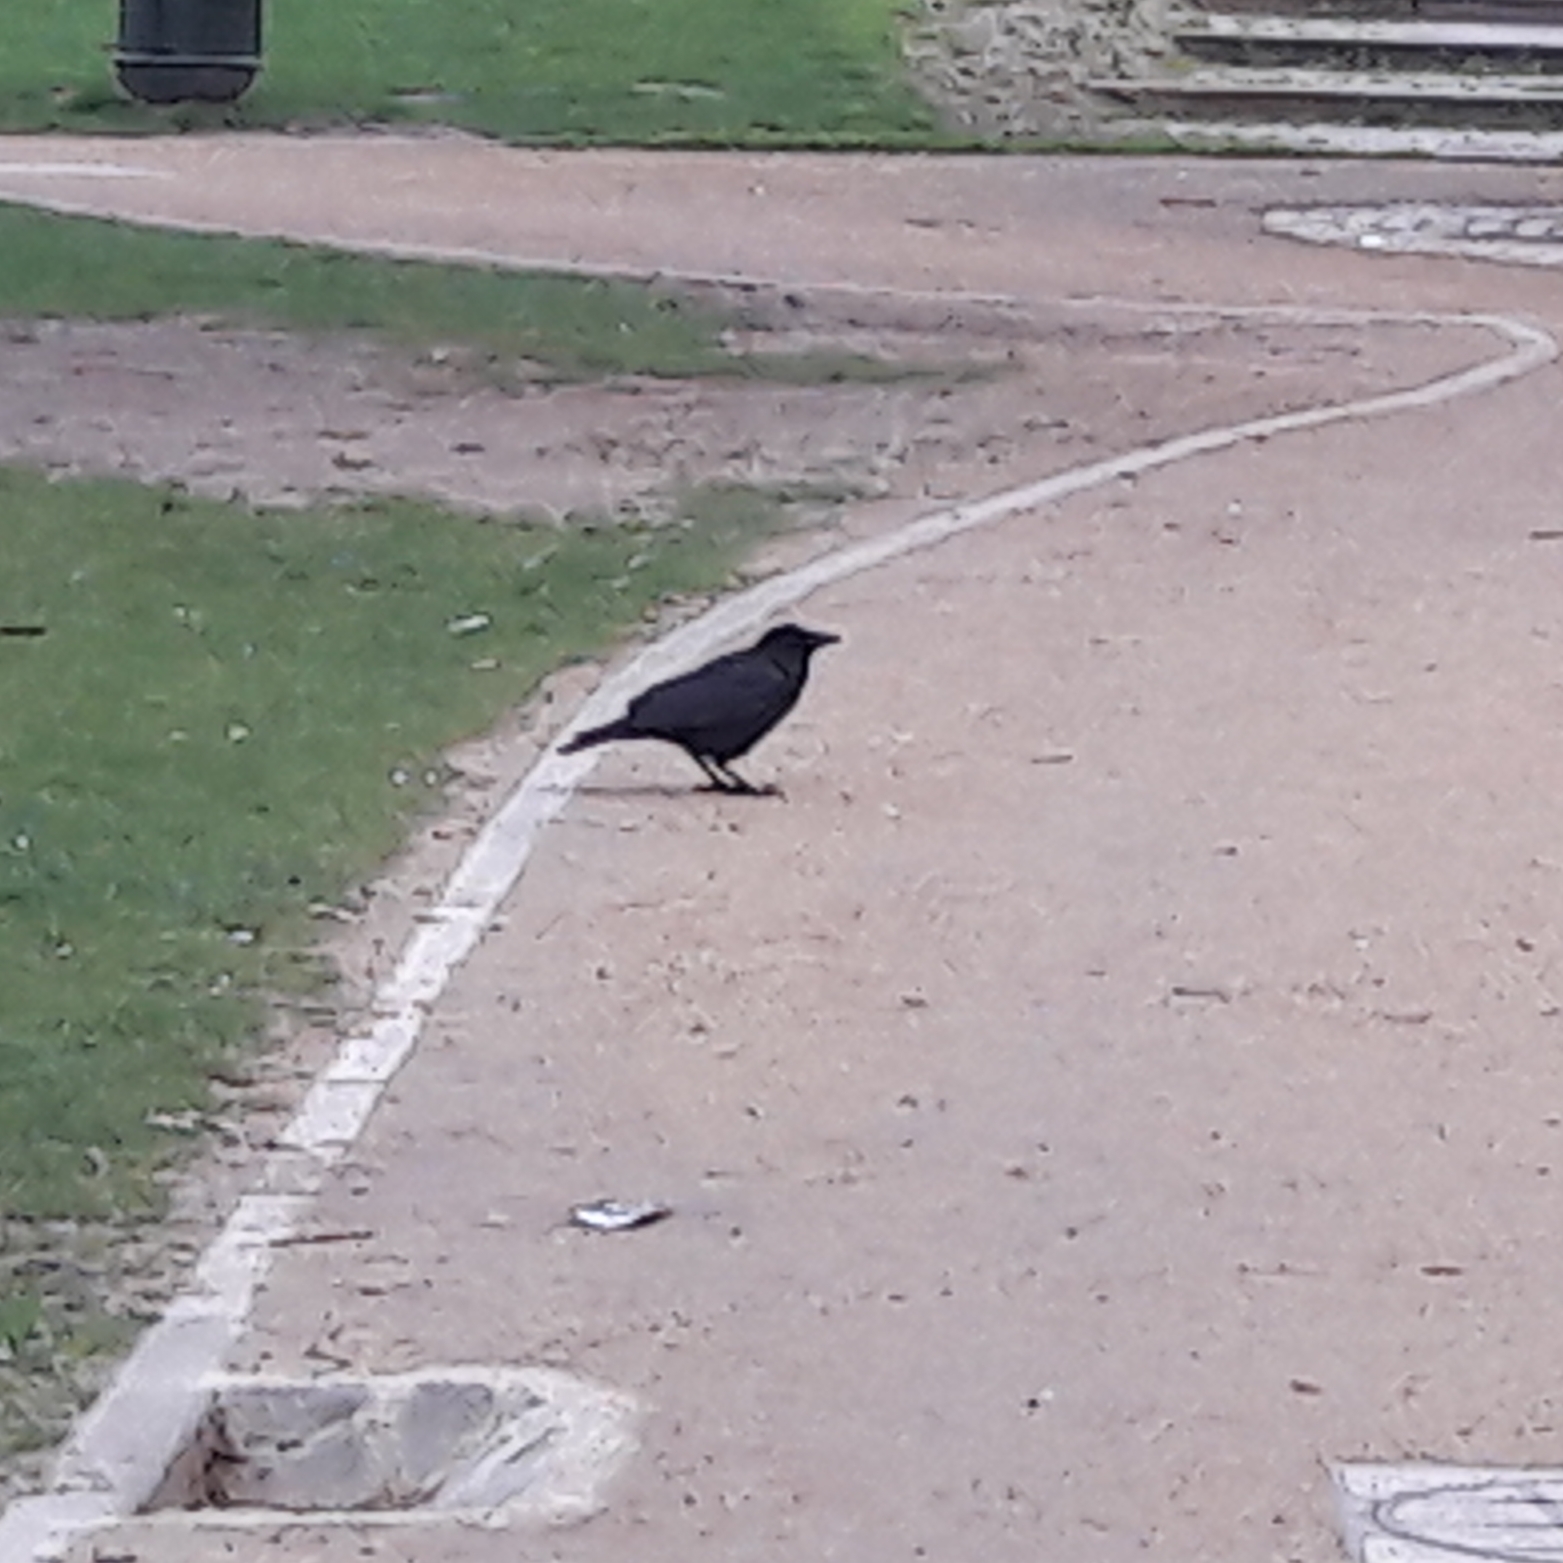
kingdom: Animalia
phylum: Chordata
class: Aves
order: Passeriformes
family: Corvidae
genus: Corvus
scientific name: Corvus corone
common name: Carrion crow
